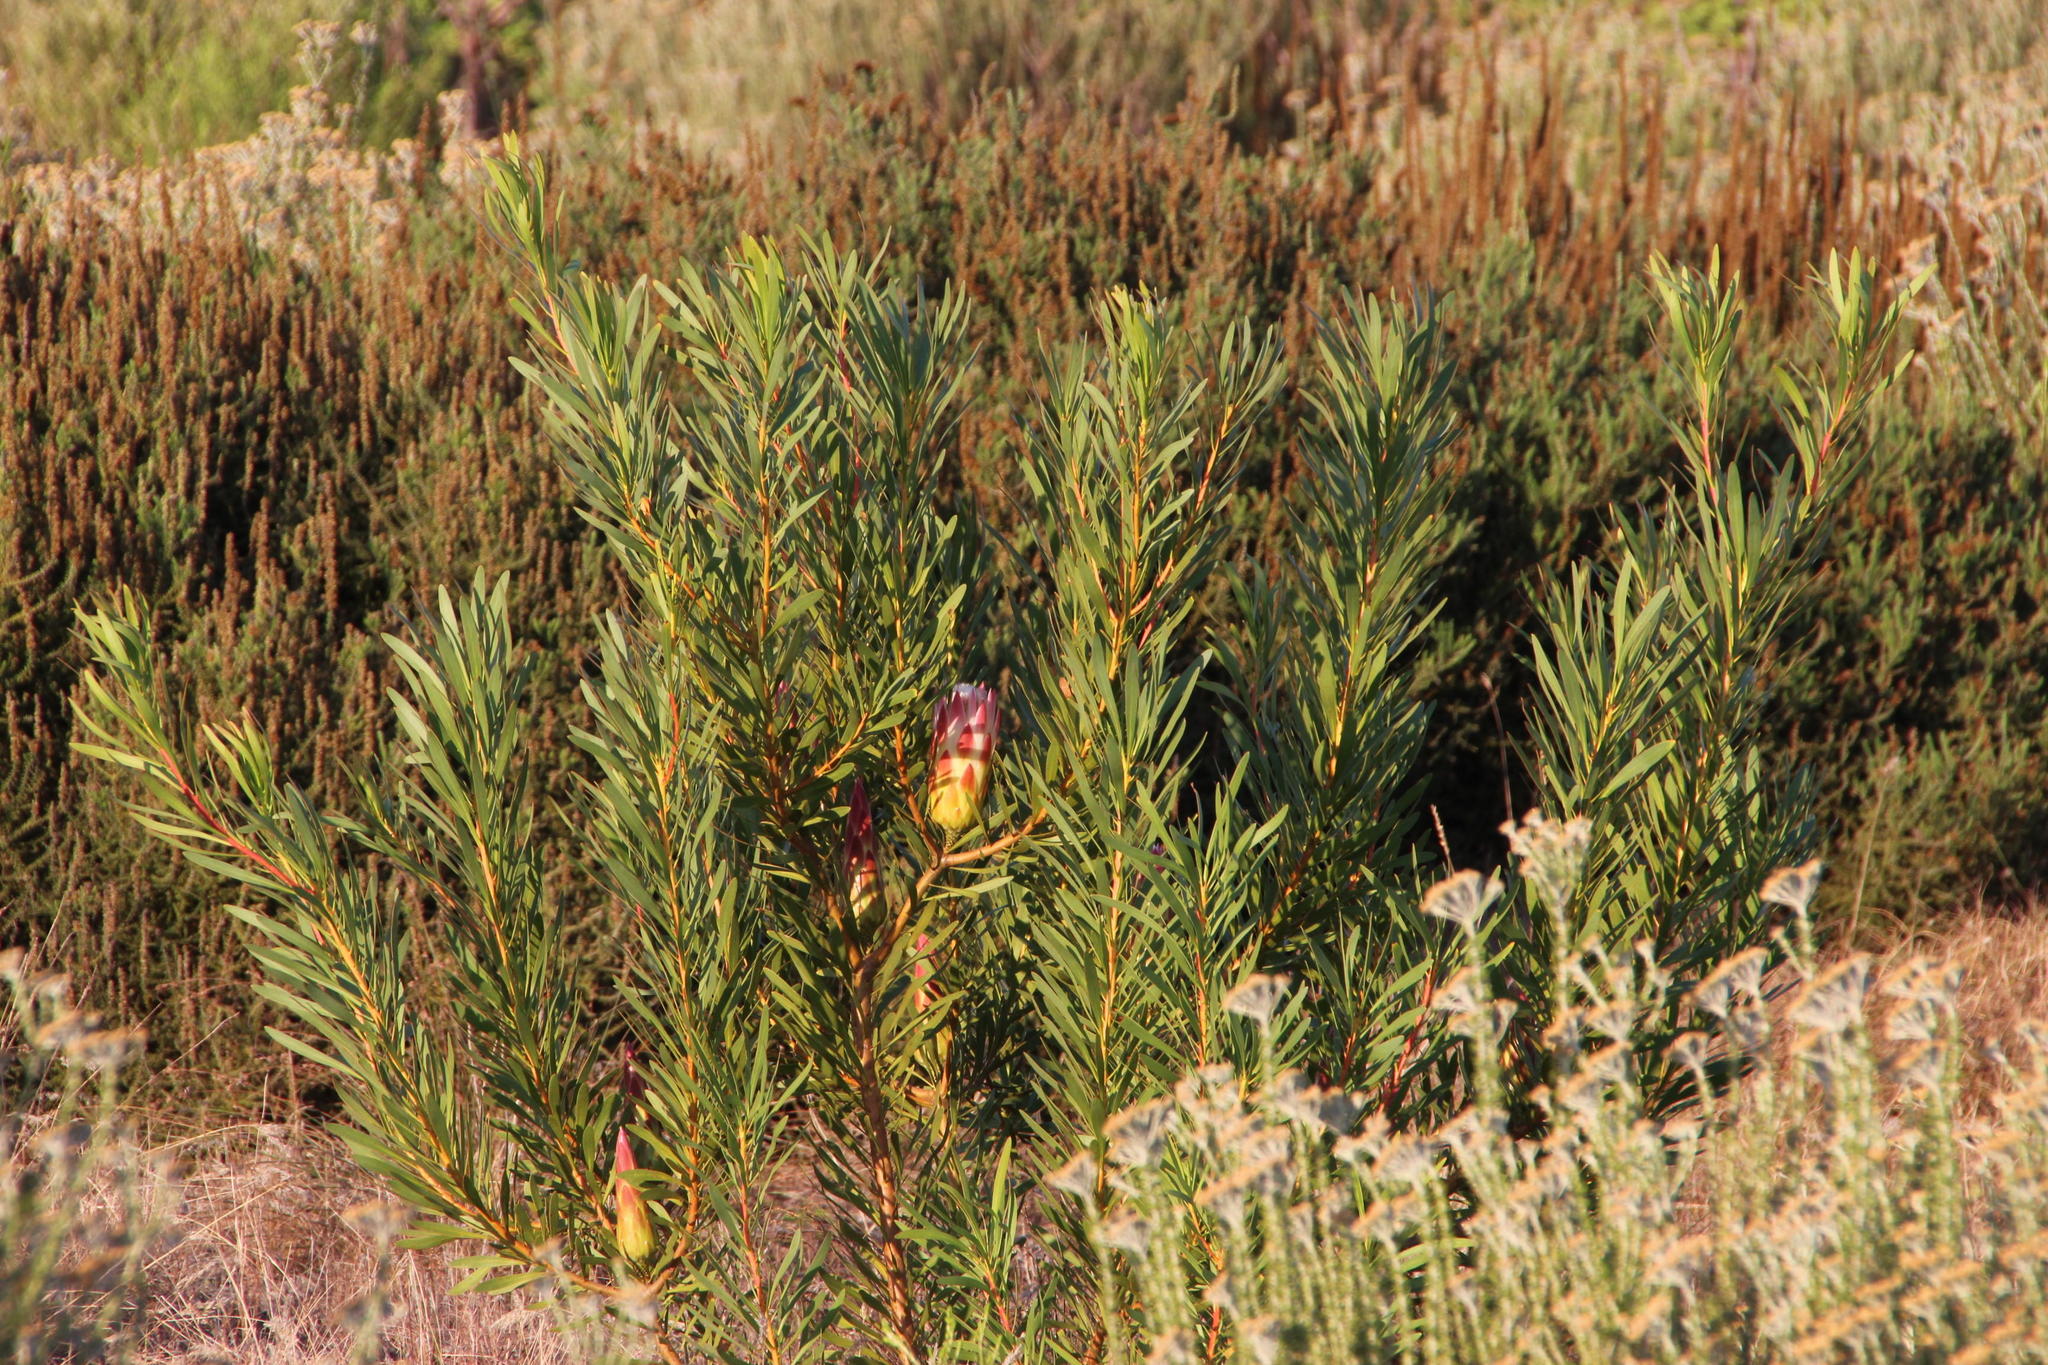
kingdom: Plantae
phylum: Tracheophyta
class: Magnoliopsida
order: Proteales
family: Proteaceae
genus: Protea
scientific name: Protea repens
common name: Sugarbush
